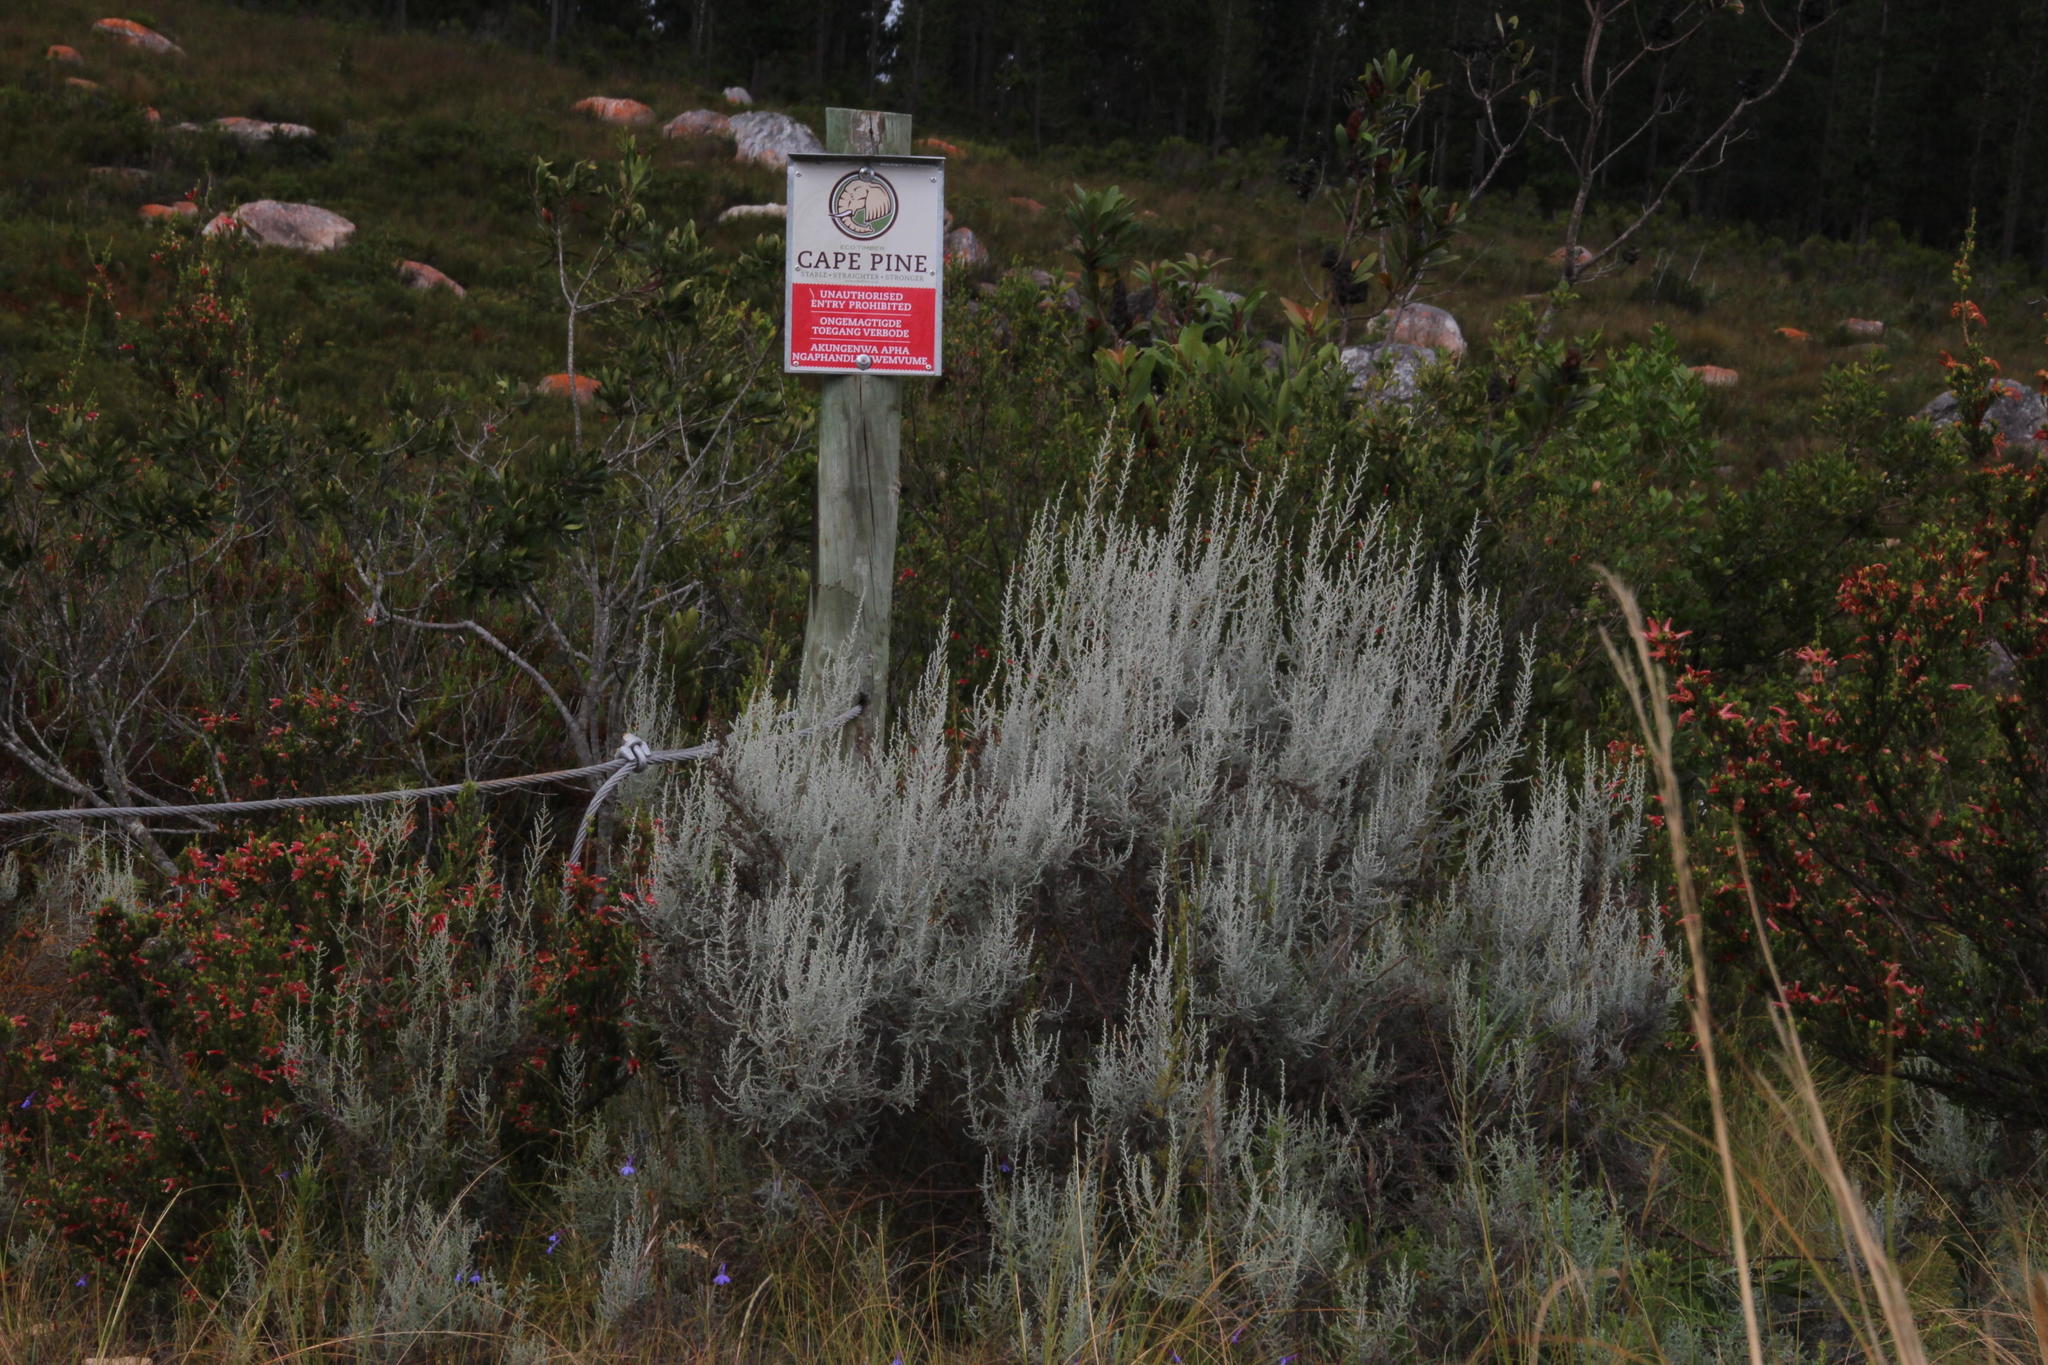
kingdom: Plantae
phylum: Tracheophyta
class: Magnoliopsida
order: Asterales
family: Asteraceae
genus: Seriphium
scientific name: Seriphium plumosum
